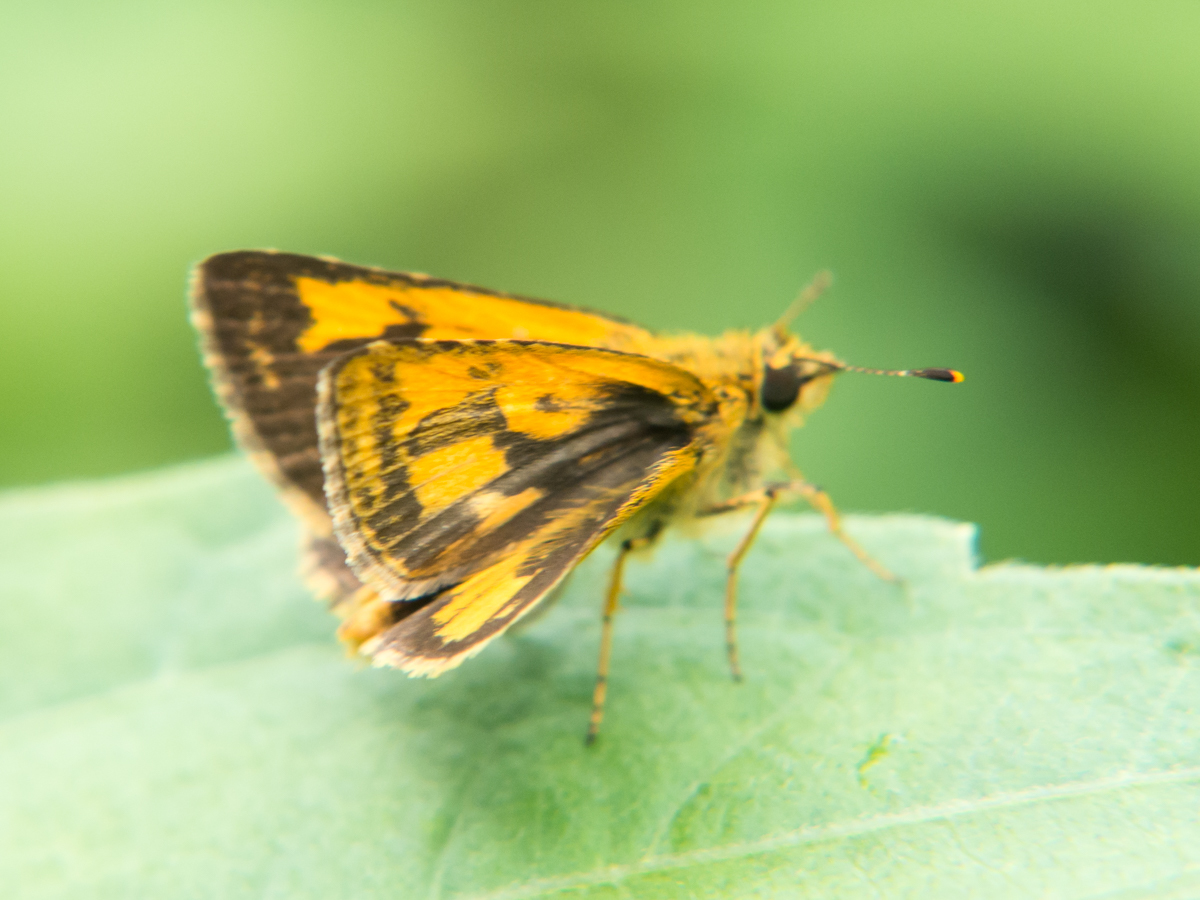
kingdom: Animalia
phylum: Arthropoda
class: Insecta
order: Lepidoptera
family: Hesperiidae
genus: Ampittia
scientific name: Ampittia dioscorides
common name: Common bush hopper
